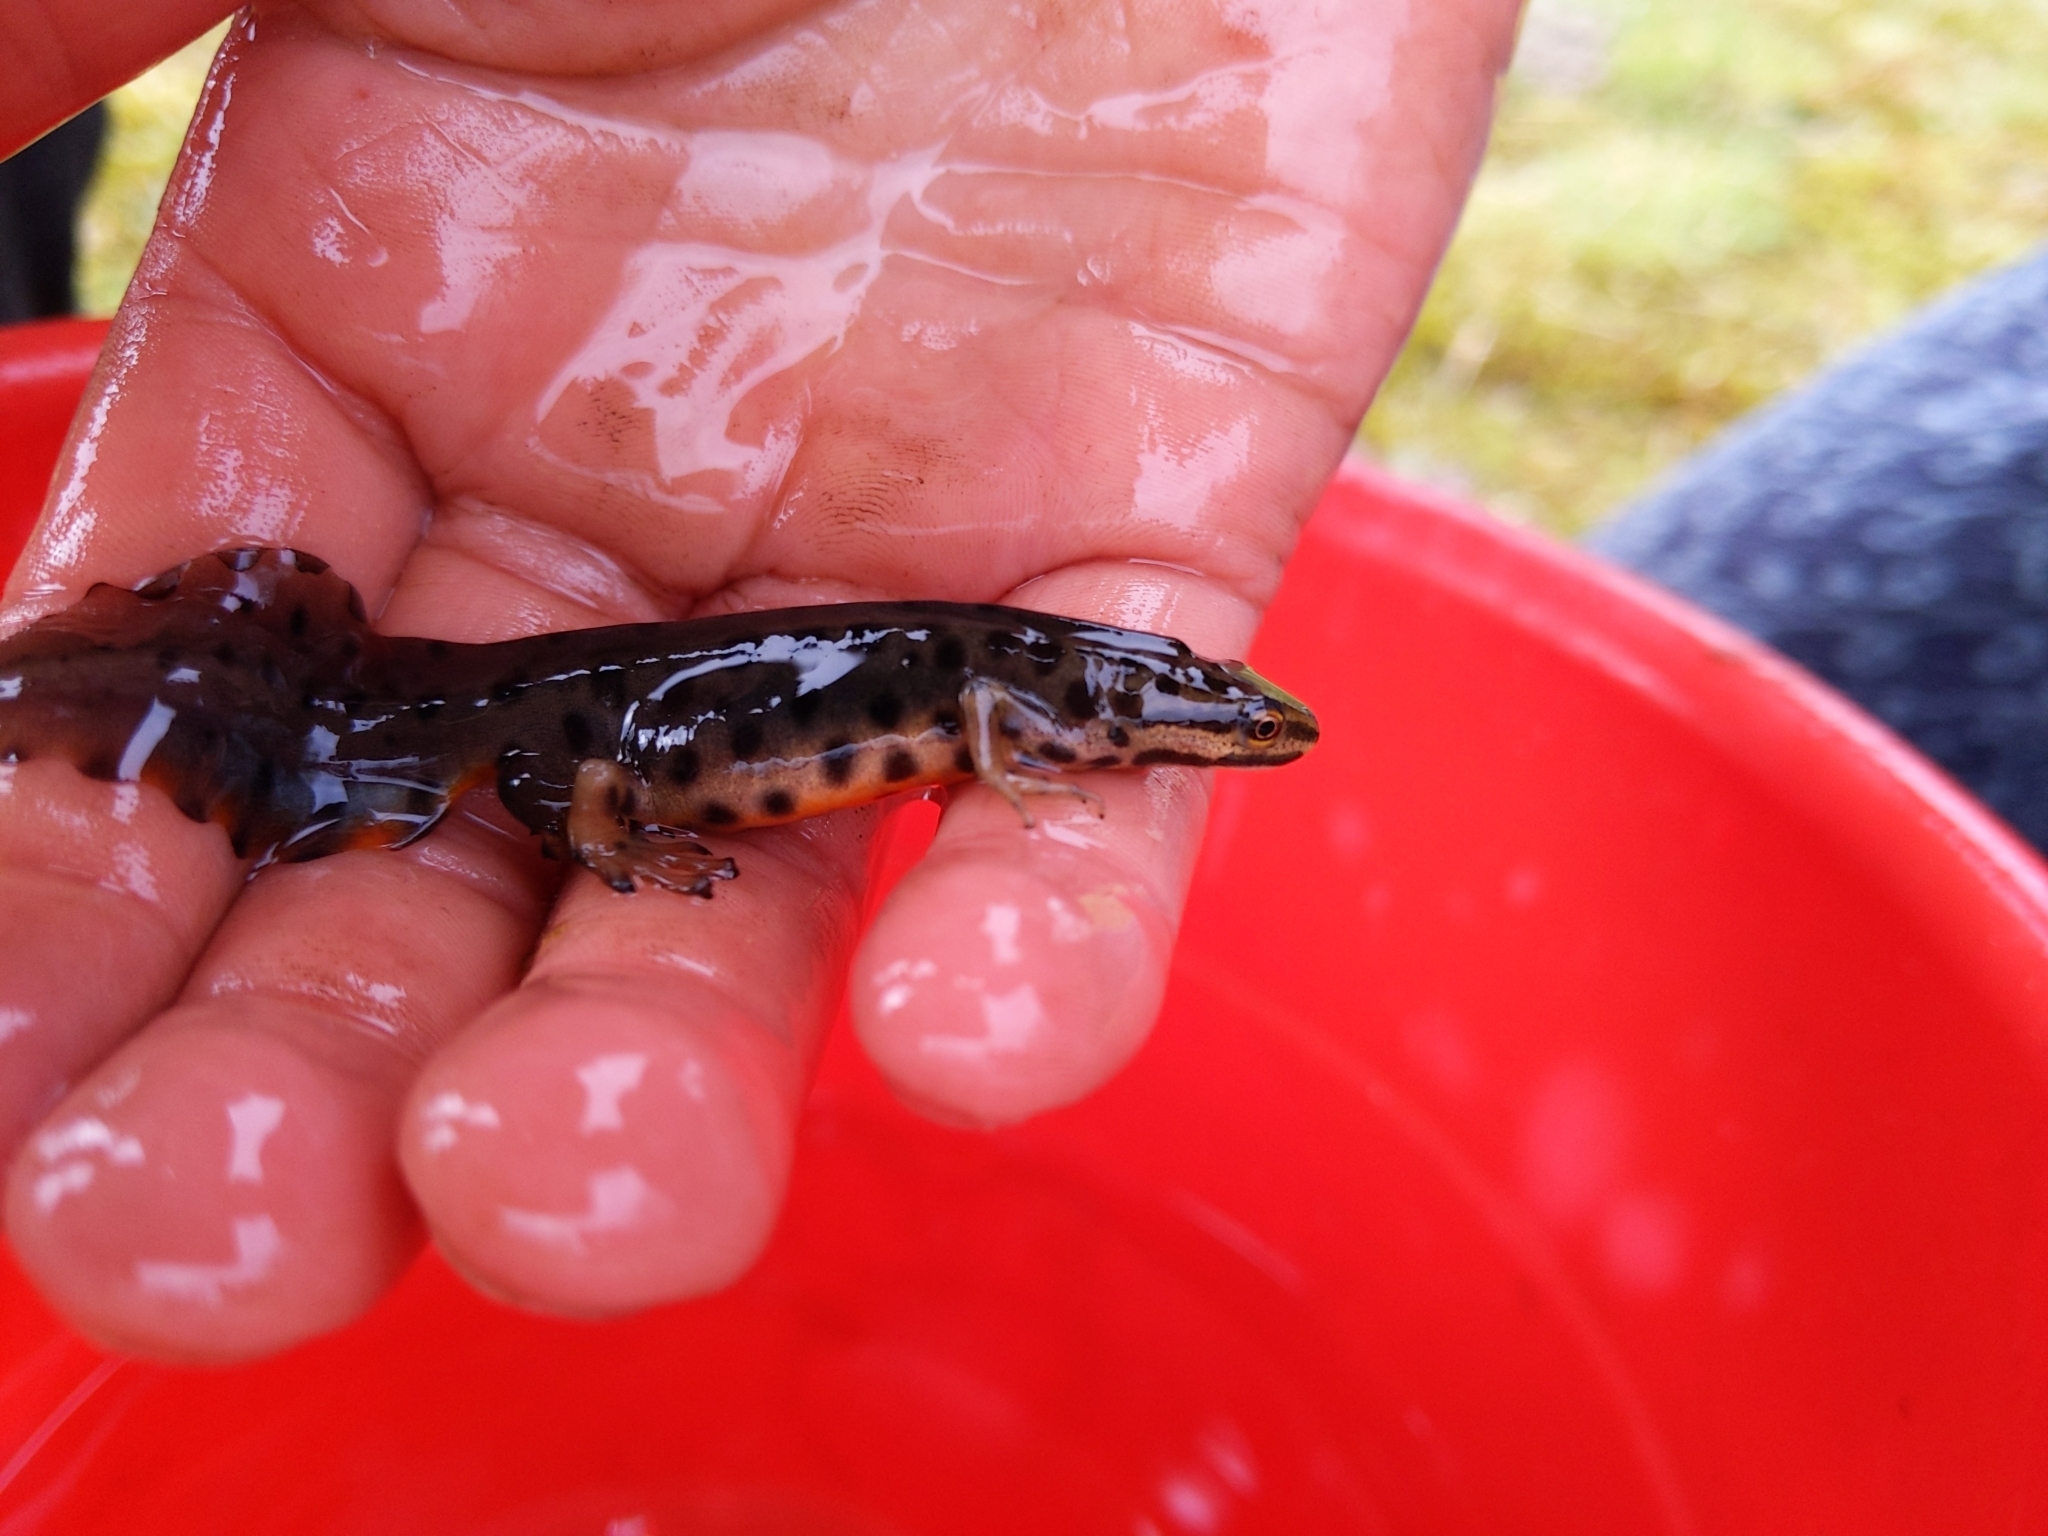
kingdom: Animalia
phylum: Chordata
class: Amphibia
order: Caudata
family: Salamandridae
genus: Lissotriton
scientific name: Lissotriton vulgaris
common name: Smooth newt
